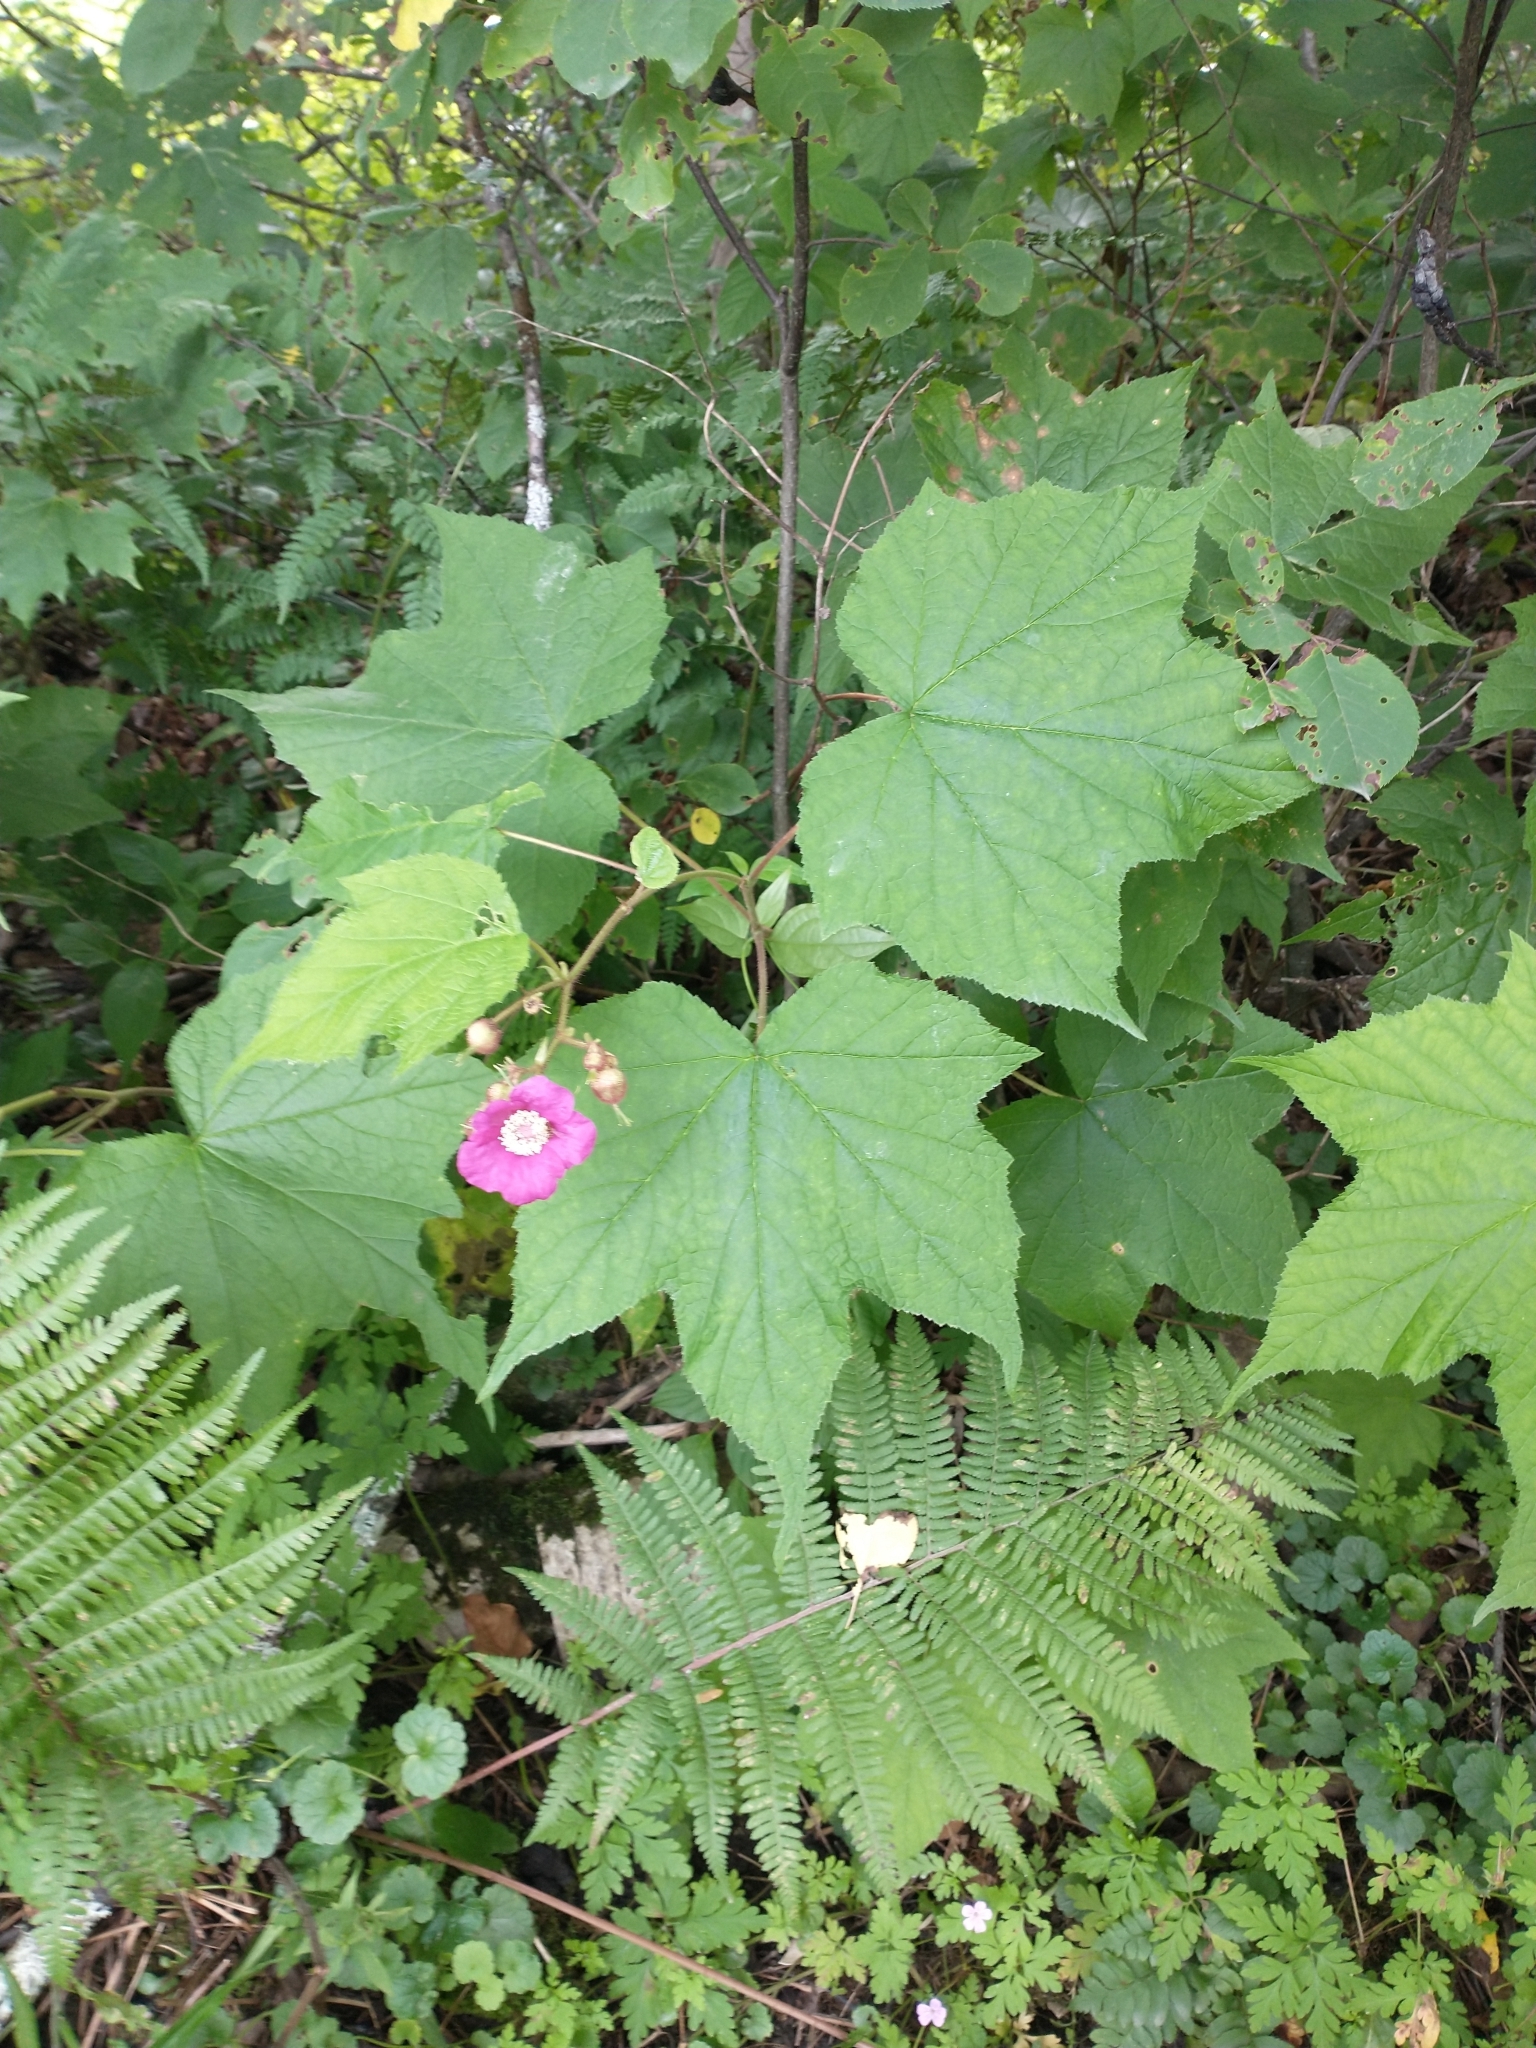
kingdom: Plantae
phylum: Tracheophyta
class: Magnoliopsida
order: Rosales
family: Rosaceae
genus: Rubus
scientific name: Rubus odoratus
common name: Purple-flowered raspberry
